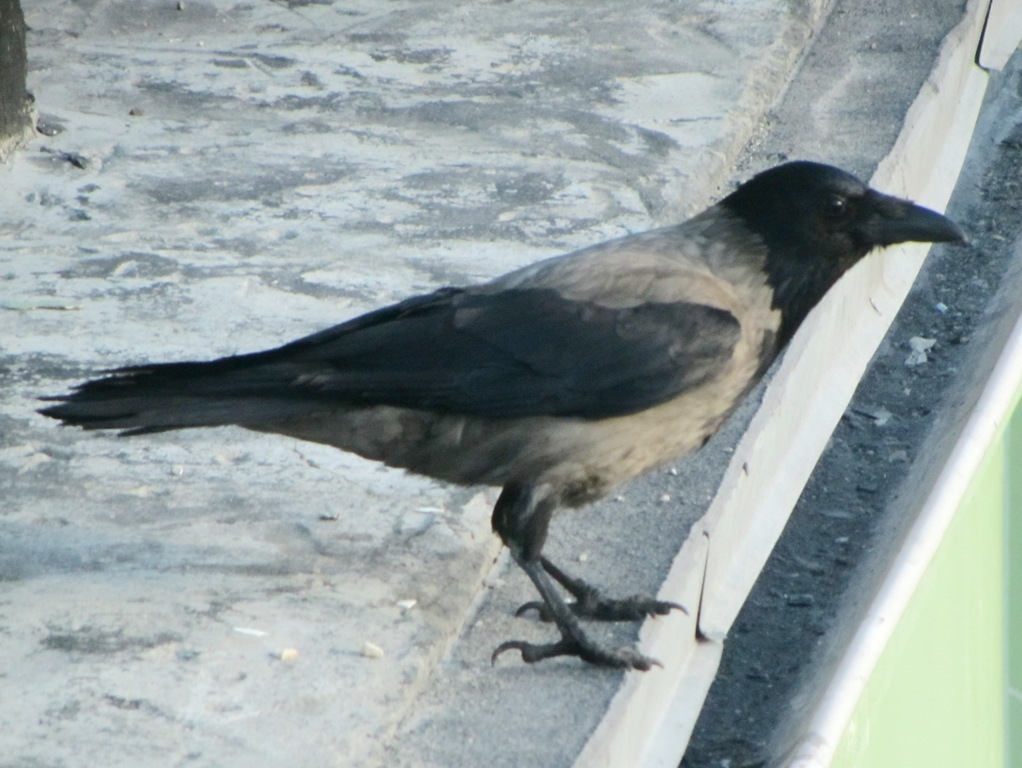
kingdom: Animalia
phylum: Chordata
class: Aves
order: Passeriformes
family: Corvidae
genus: Corvus
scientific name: Corvus cornix
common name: Hooded crow
